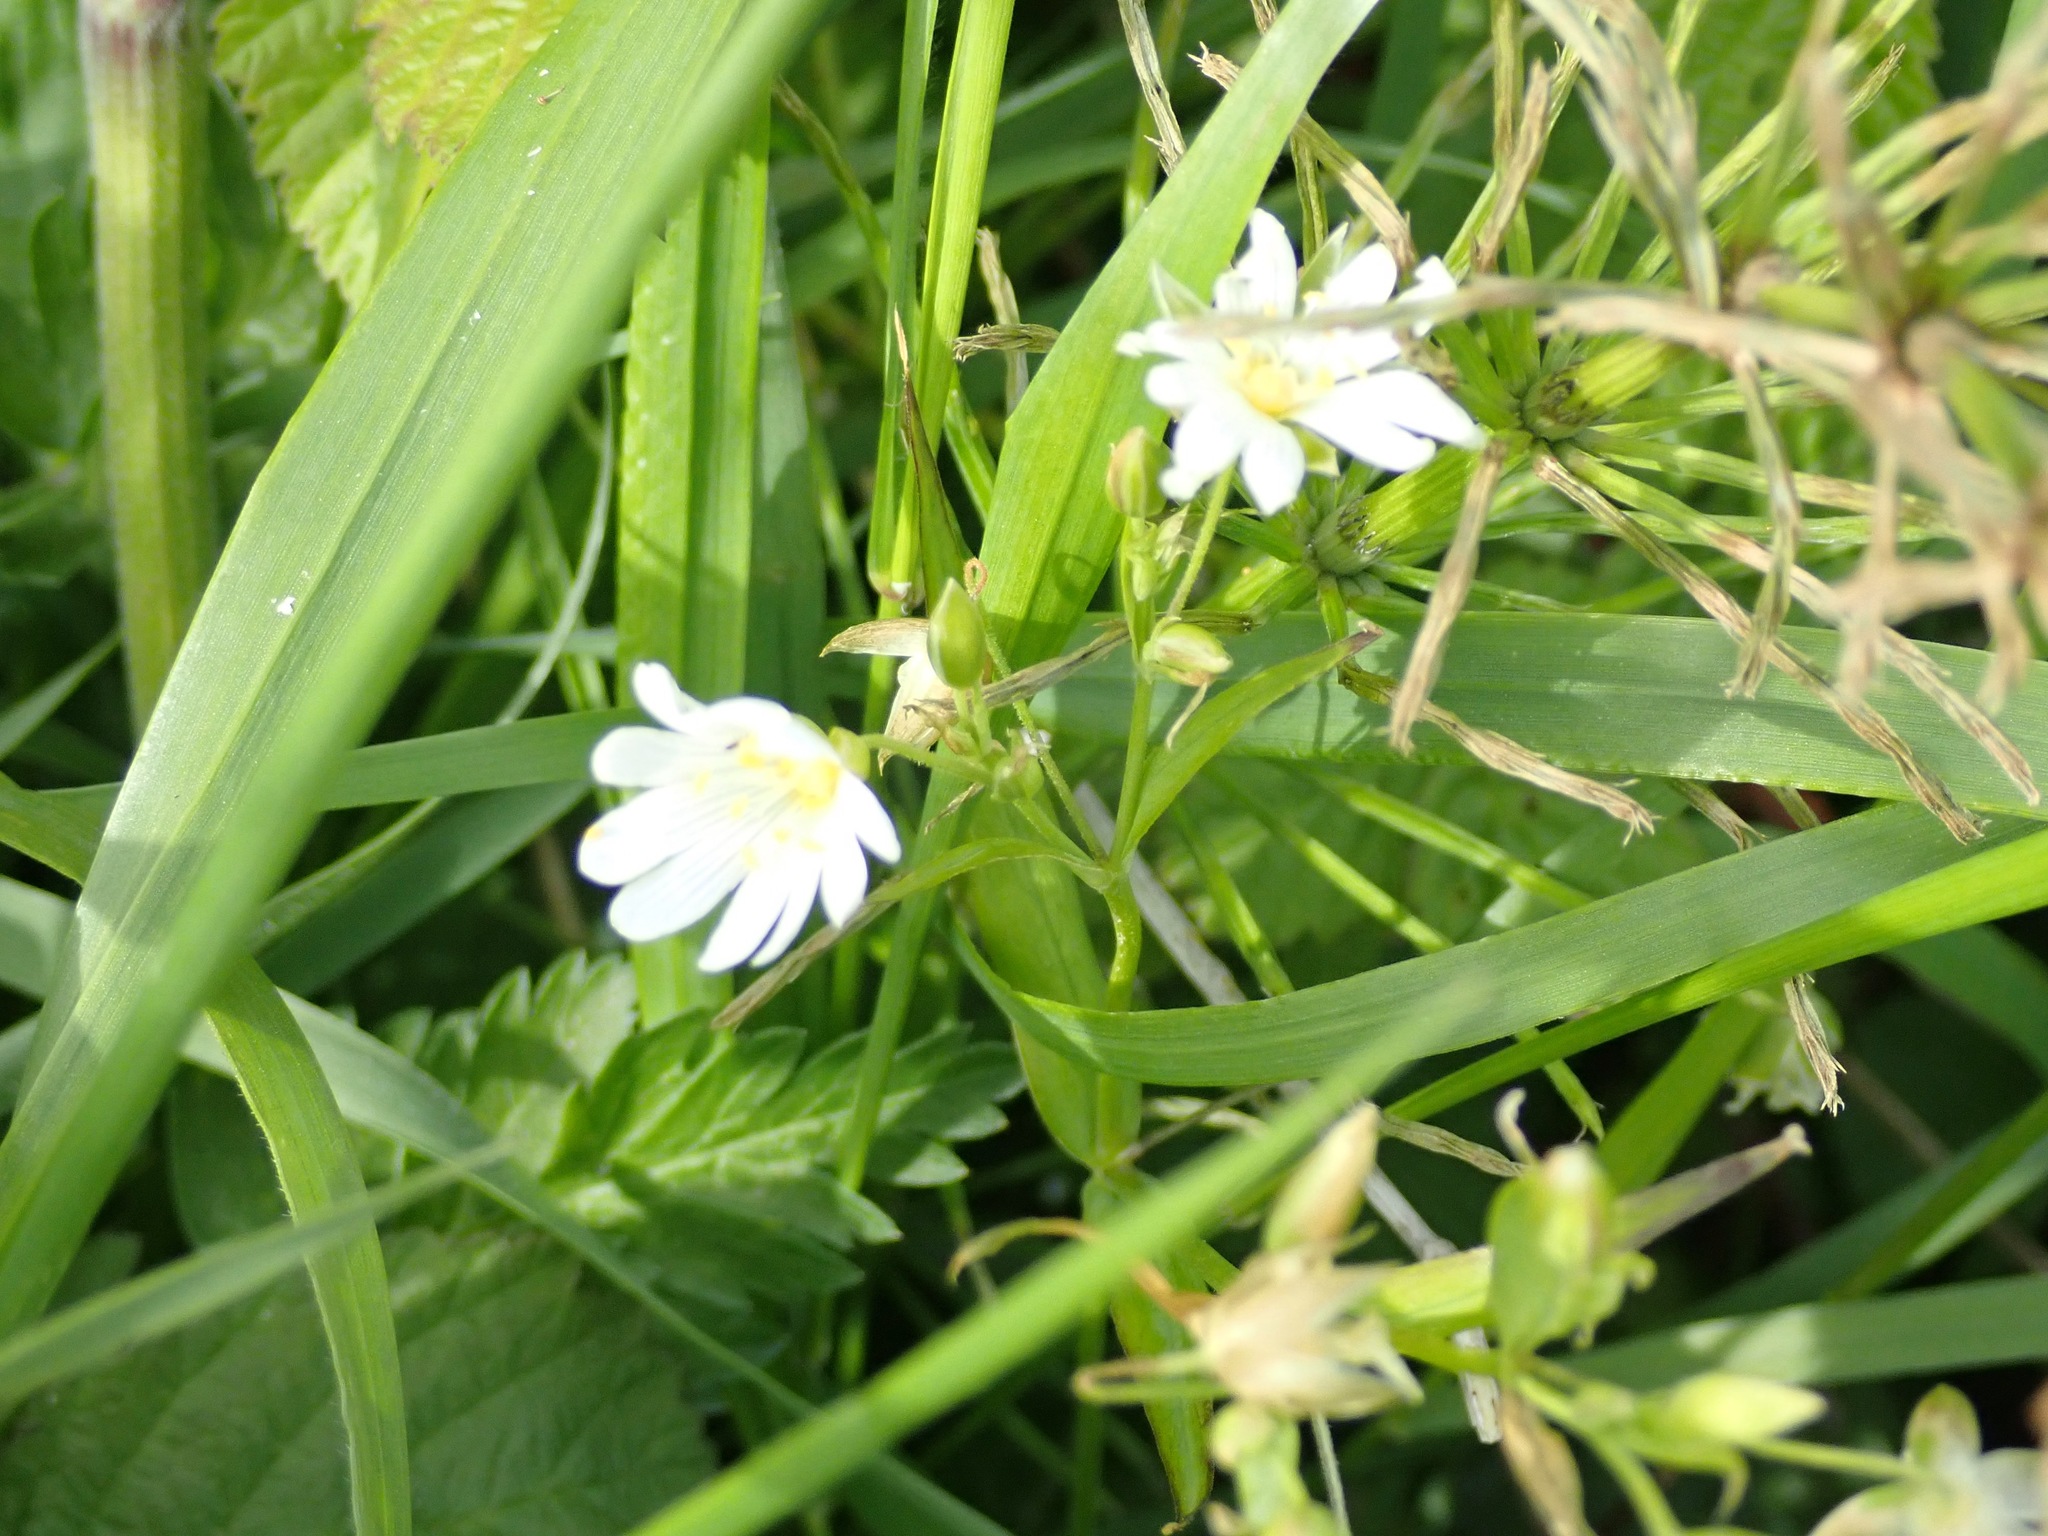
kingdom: Plantae
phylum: Tracheophyta
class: Magnoliopsida
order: Caryophyllales
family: Caryophyllaceae
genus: Rabelera
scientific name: Rabelera holostea
